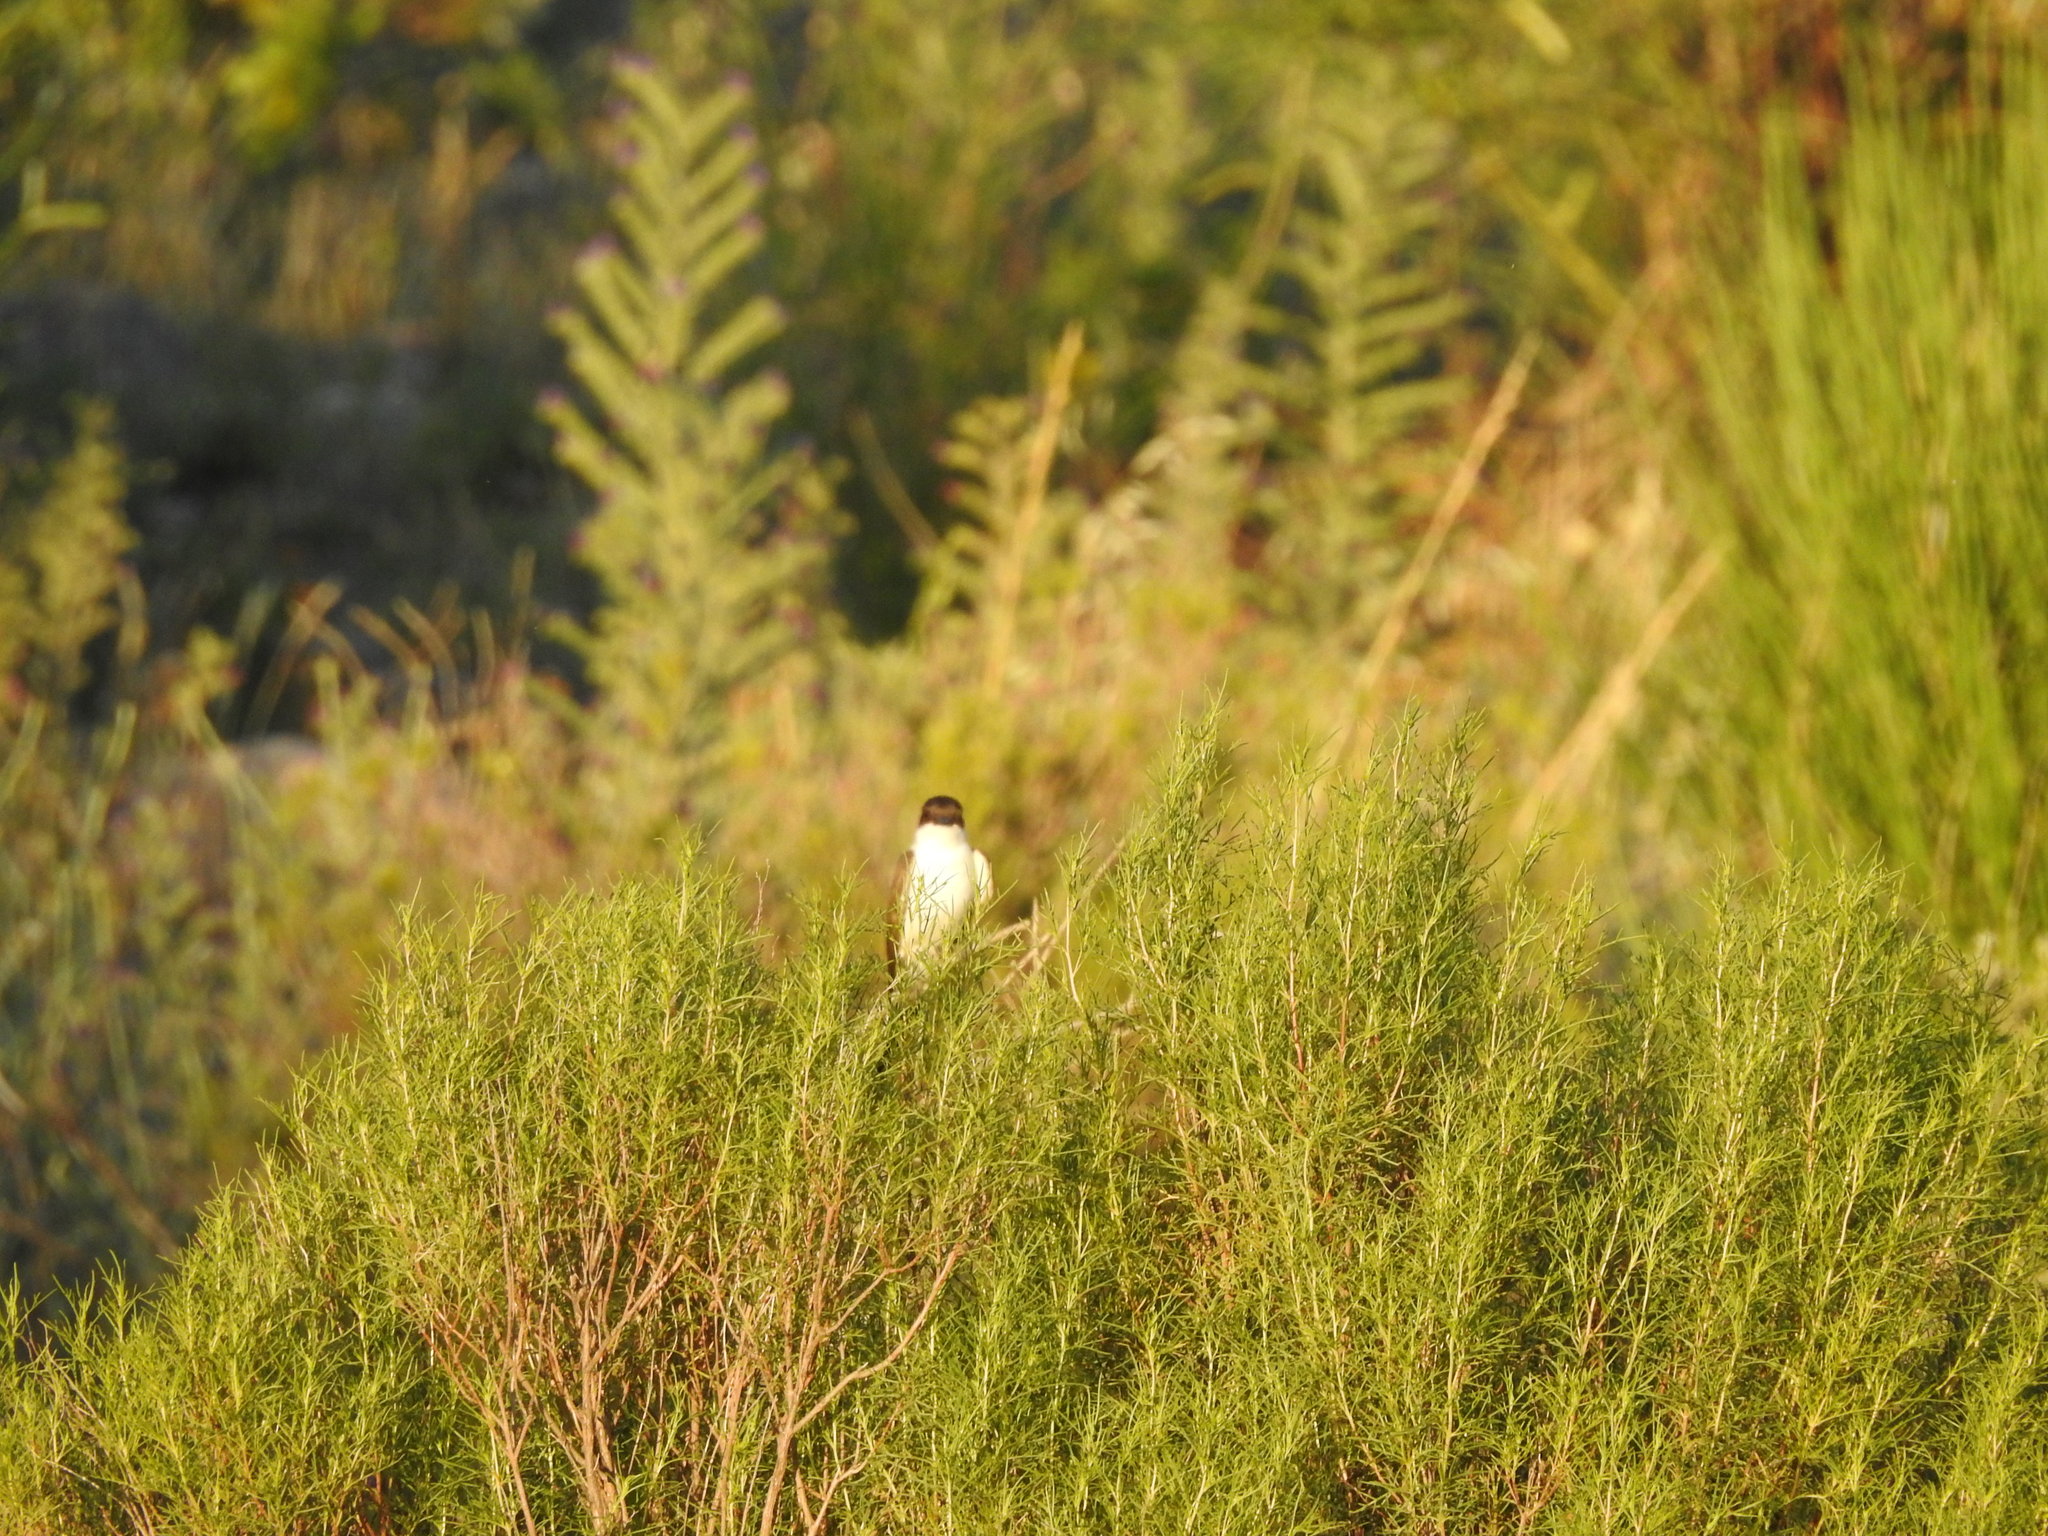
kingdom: Animalia
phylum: Chordata
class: Aves
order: Passeriformes
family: Tyrannidae
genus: Tyrannus
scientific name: Tyrannus savana
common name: Fork-tailed flycatcher
